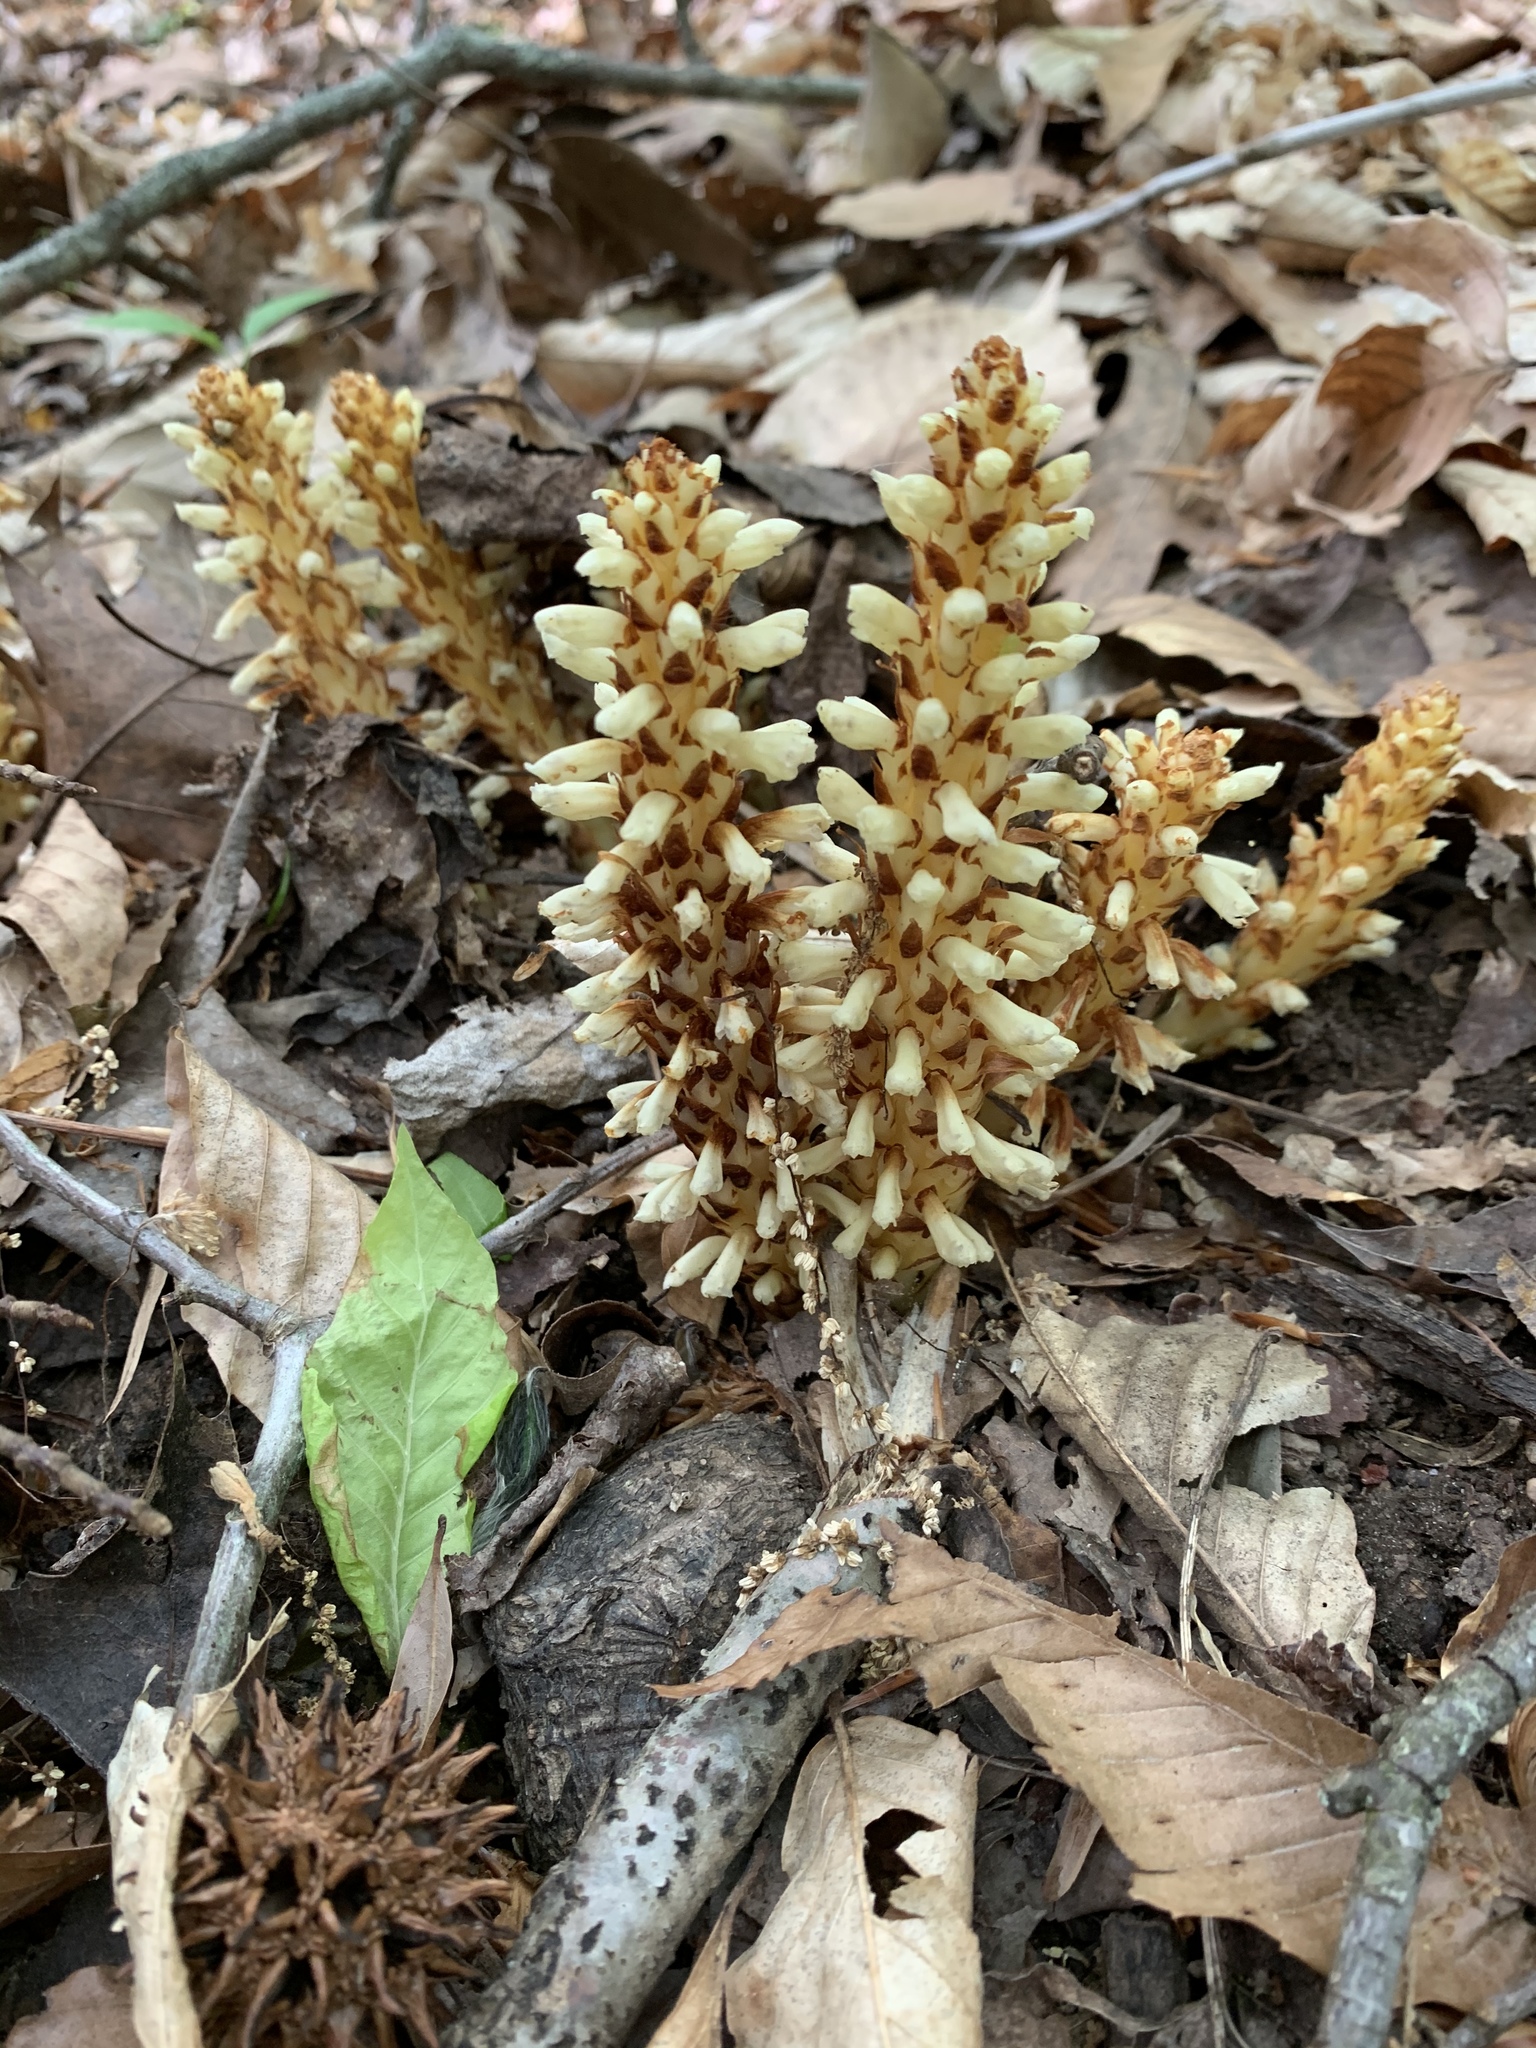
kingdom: Plantae
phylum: Tracheophyta
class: Magnoliopsida
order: Lamiales
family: Orobanchaceae
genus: Conopholis
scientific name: Conopholis americana
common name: American cancer-root
